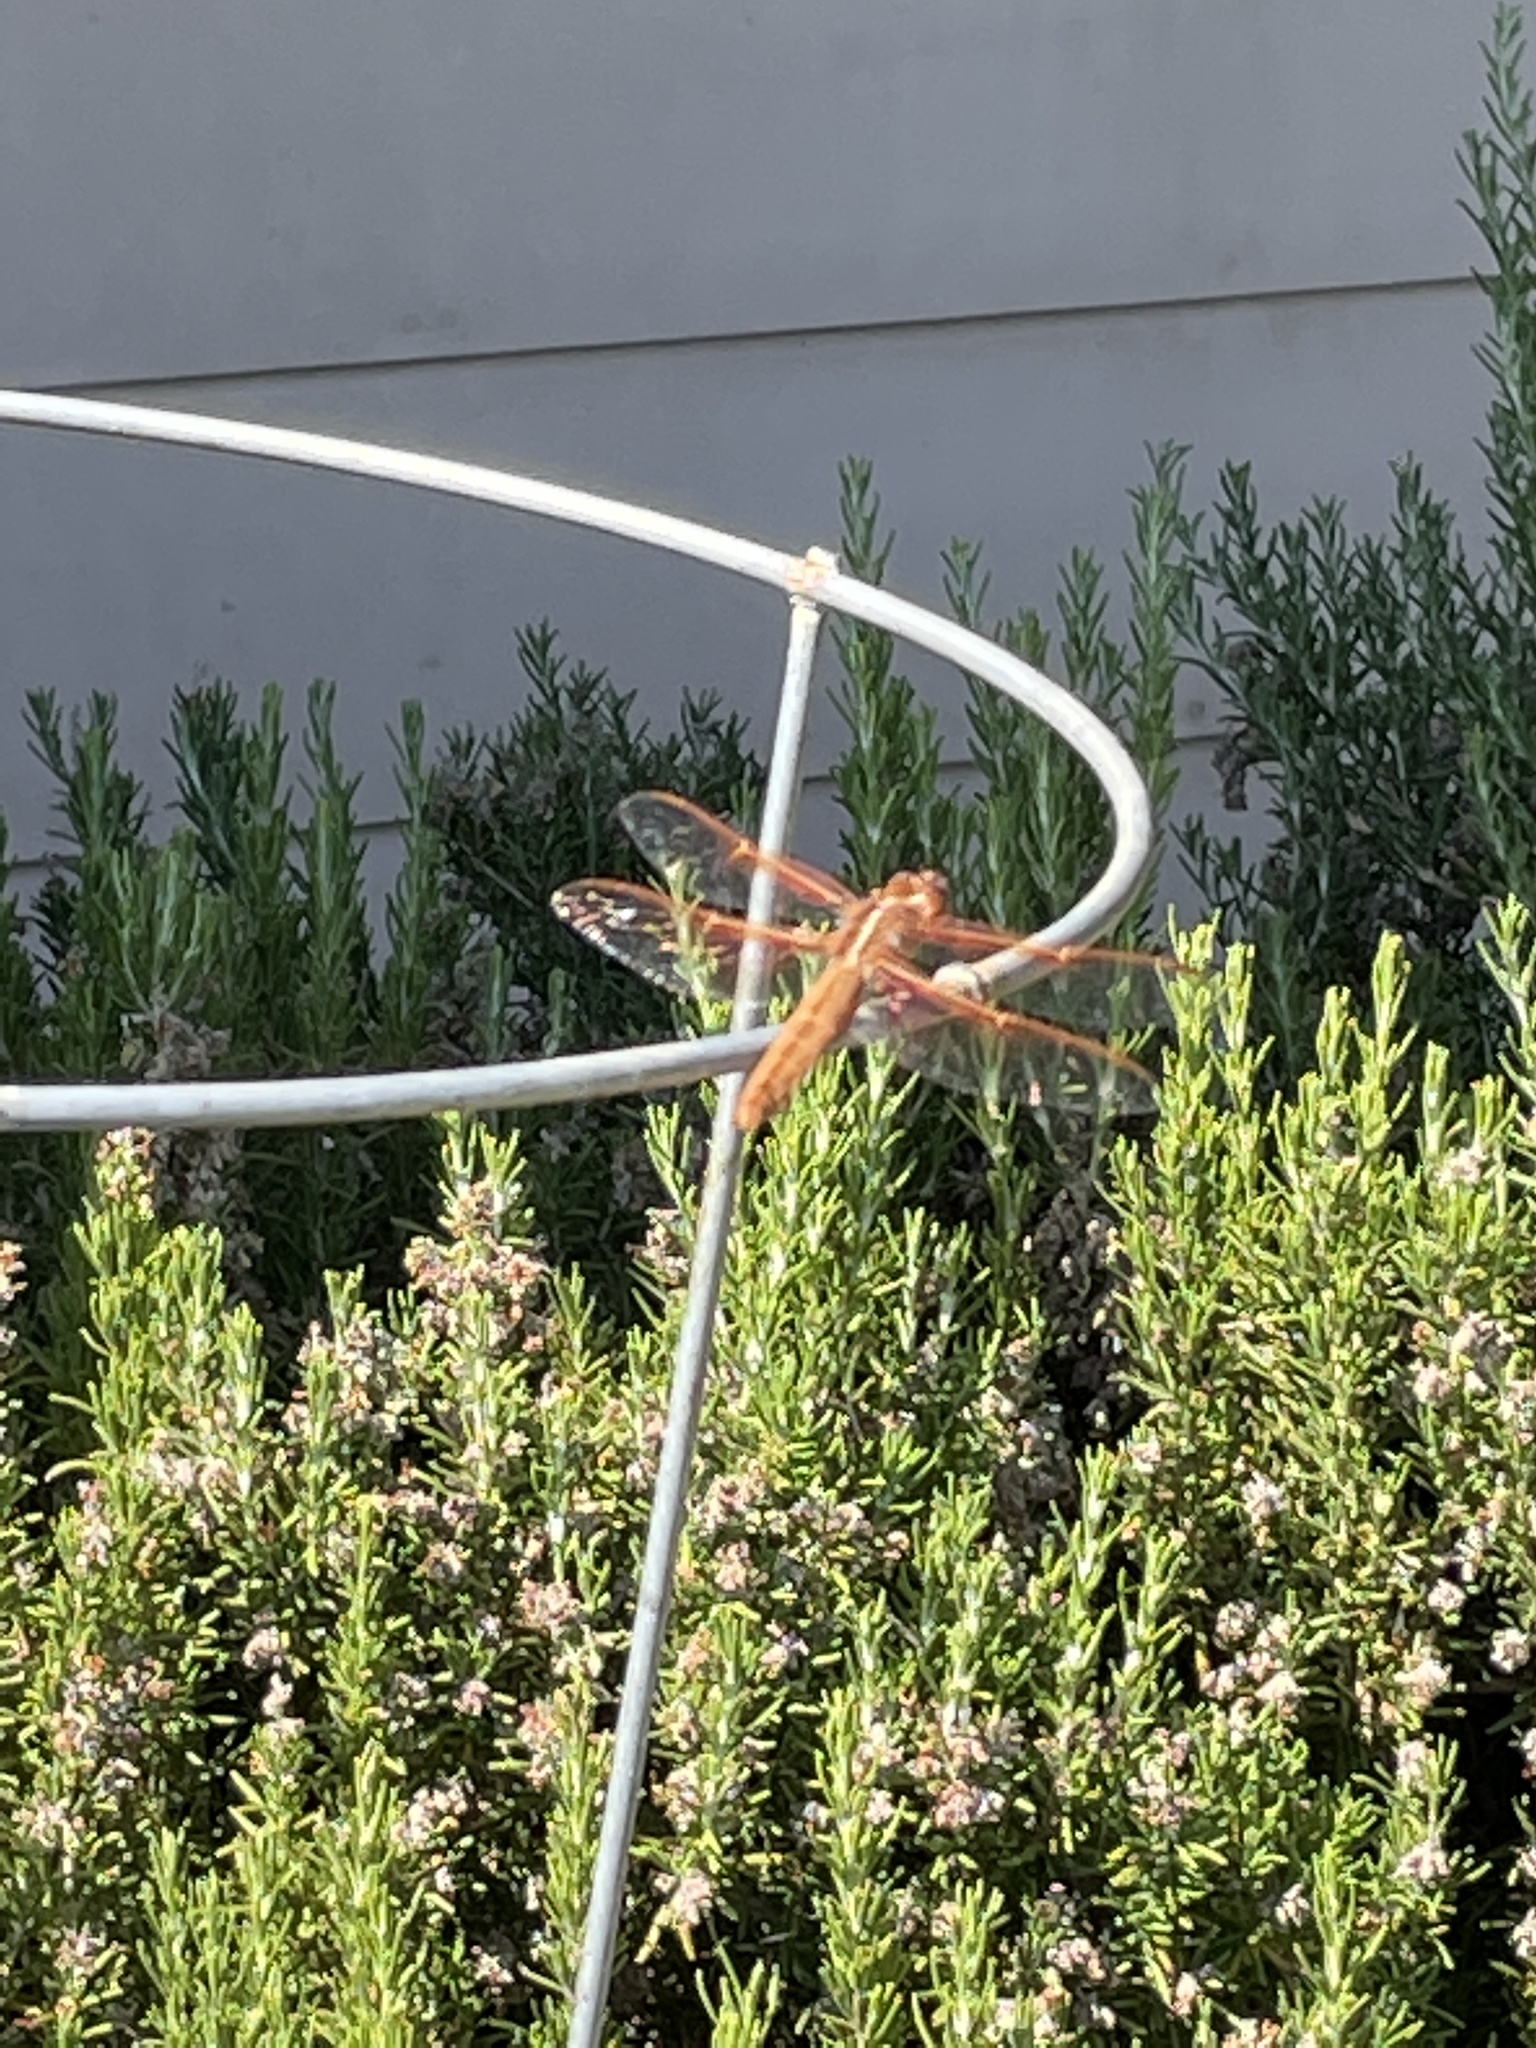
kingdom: Animalia
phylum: Arthropoda
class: Insecta
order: Odonata
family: Libellulidae
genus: Libellula
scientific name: Libellula saturata
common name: Flame skimmer
